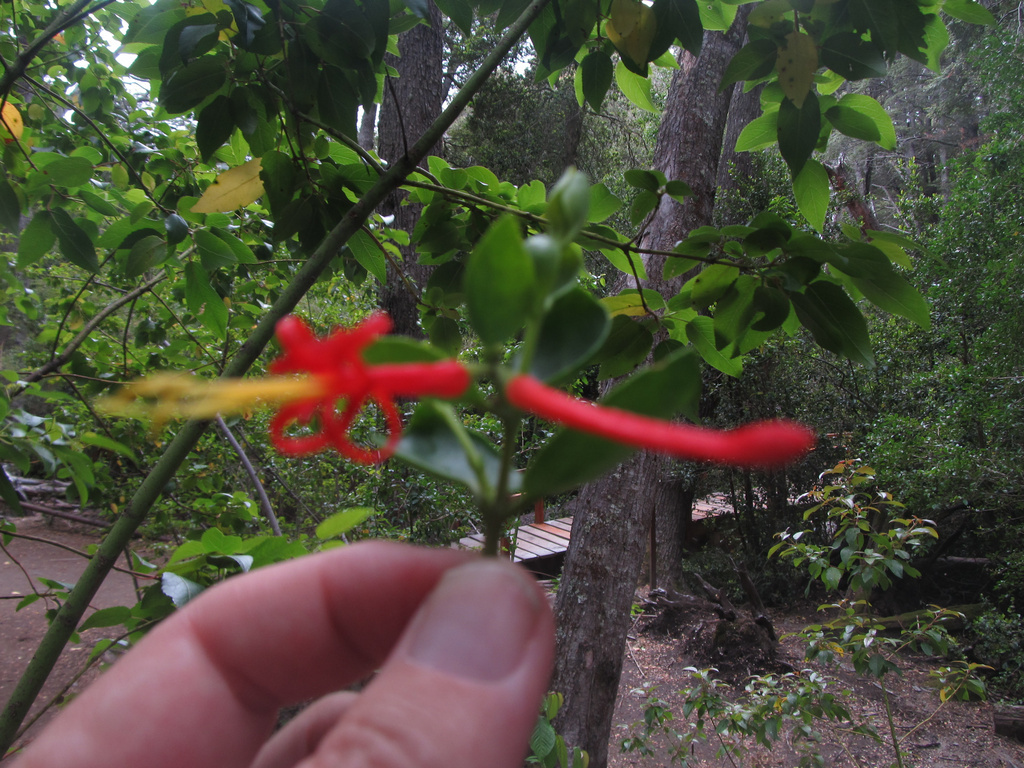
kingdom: Plantae
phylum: Tracheophyta
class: Magnoliopsida
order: Santalales
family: Loranthaceae
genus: Tristerix
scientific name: Tristerix corymbosus
